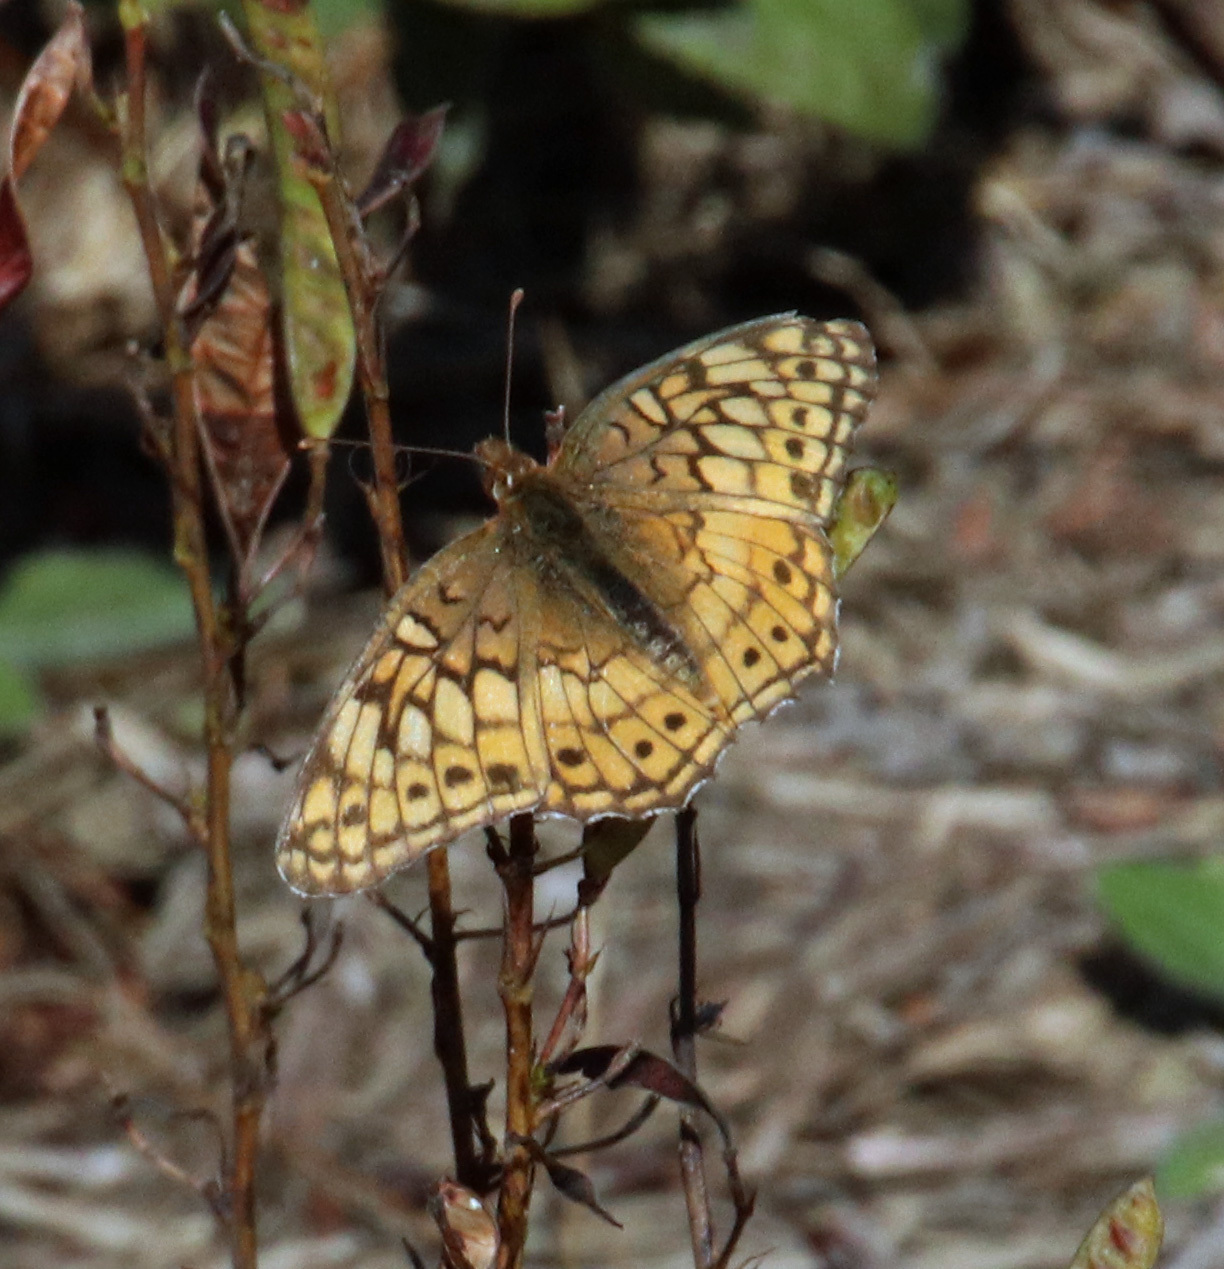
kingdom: Animalia
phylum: Arthropoda
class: Insecta
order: Lepidoptera
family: Nymphalidae
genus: Euptoieta
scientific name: Euptoieta claudia
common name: Variegated fritillary
